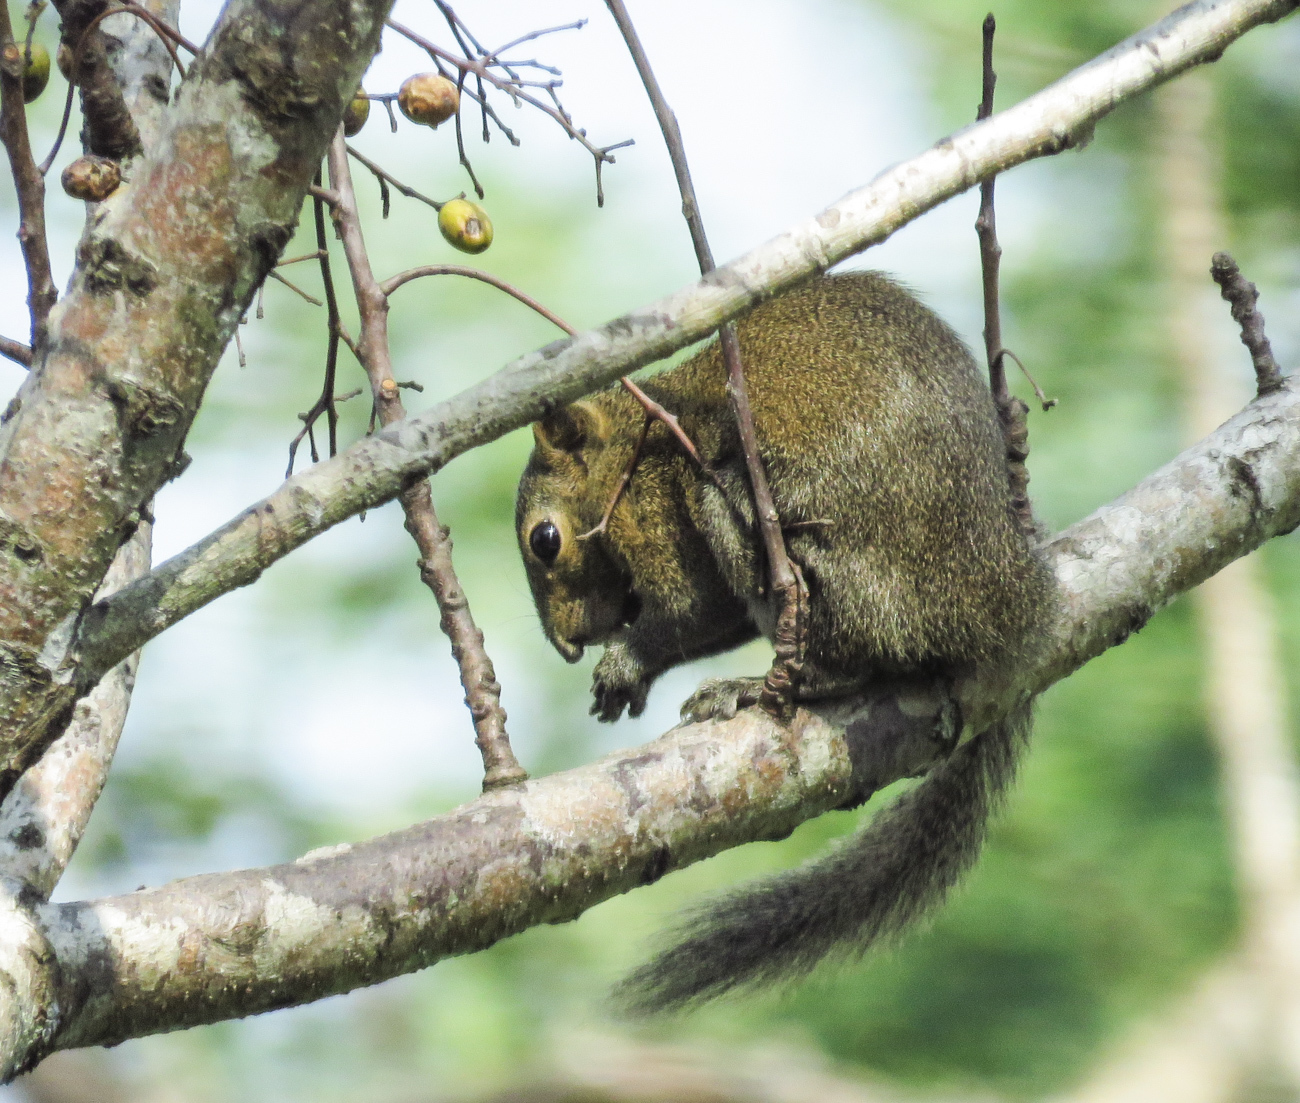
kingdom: Animalia
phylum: Chordata
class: Mammalia
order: Rodentia
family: Sciuridae
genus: Callosciurus
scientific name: Callosciurus pygerythrus
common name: Irrawaddy squirrel
